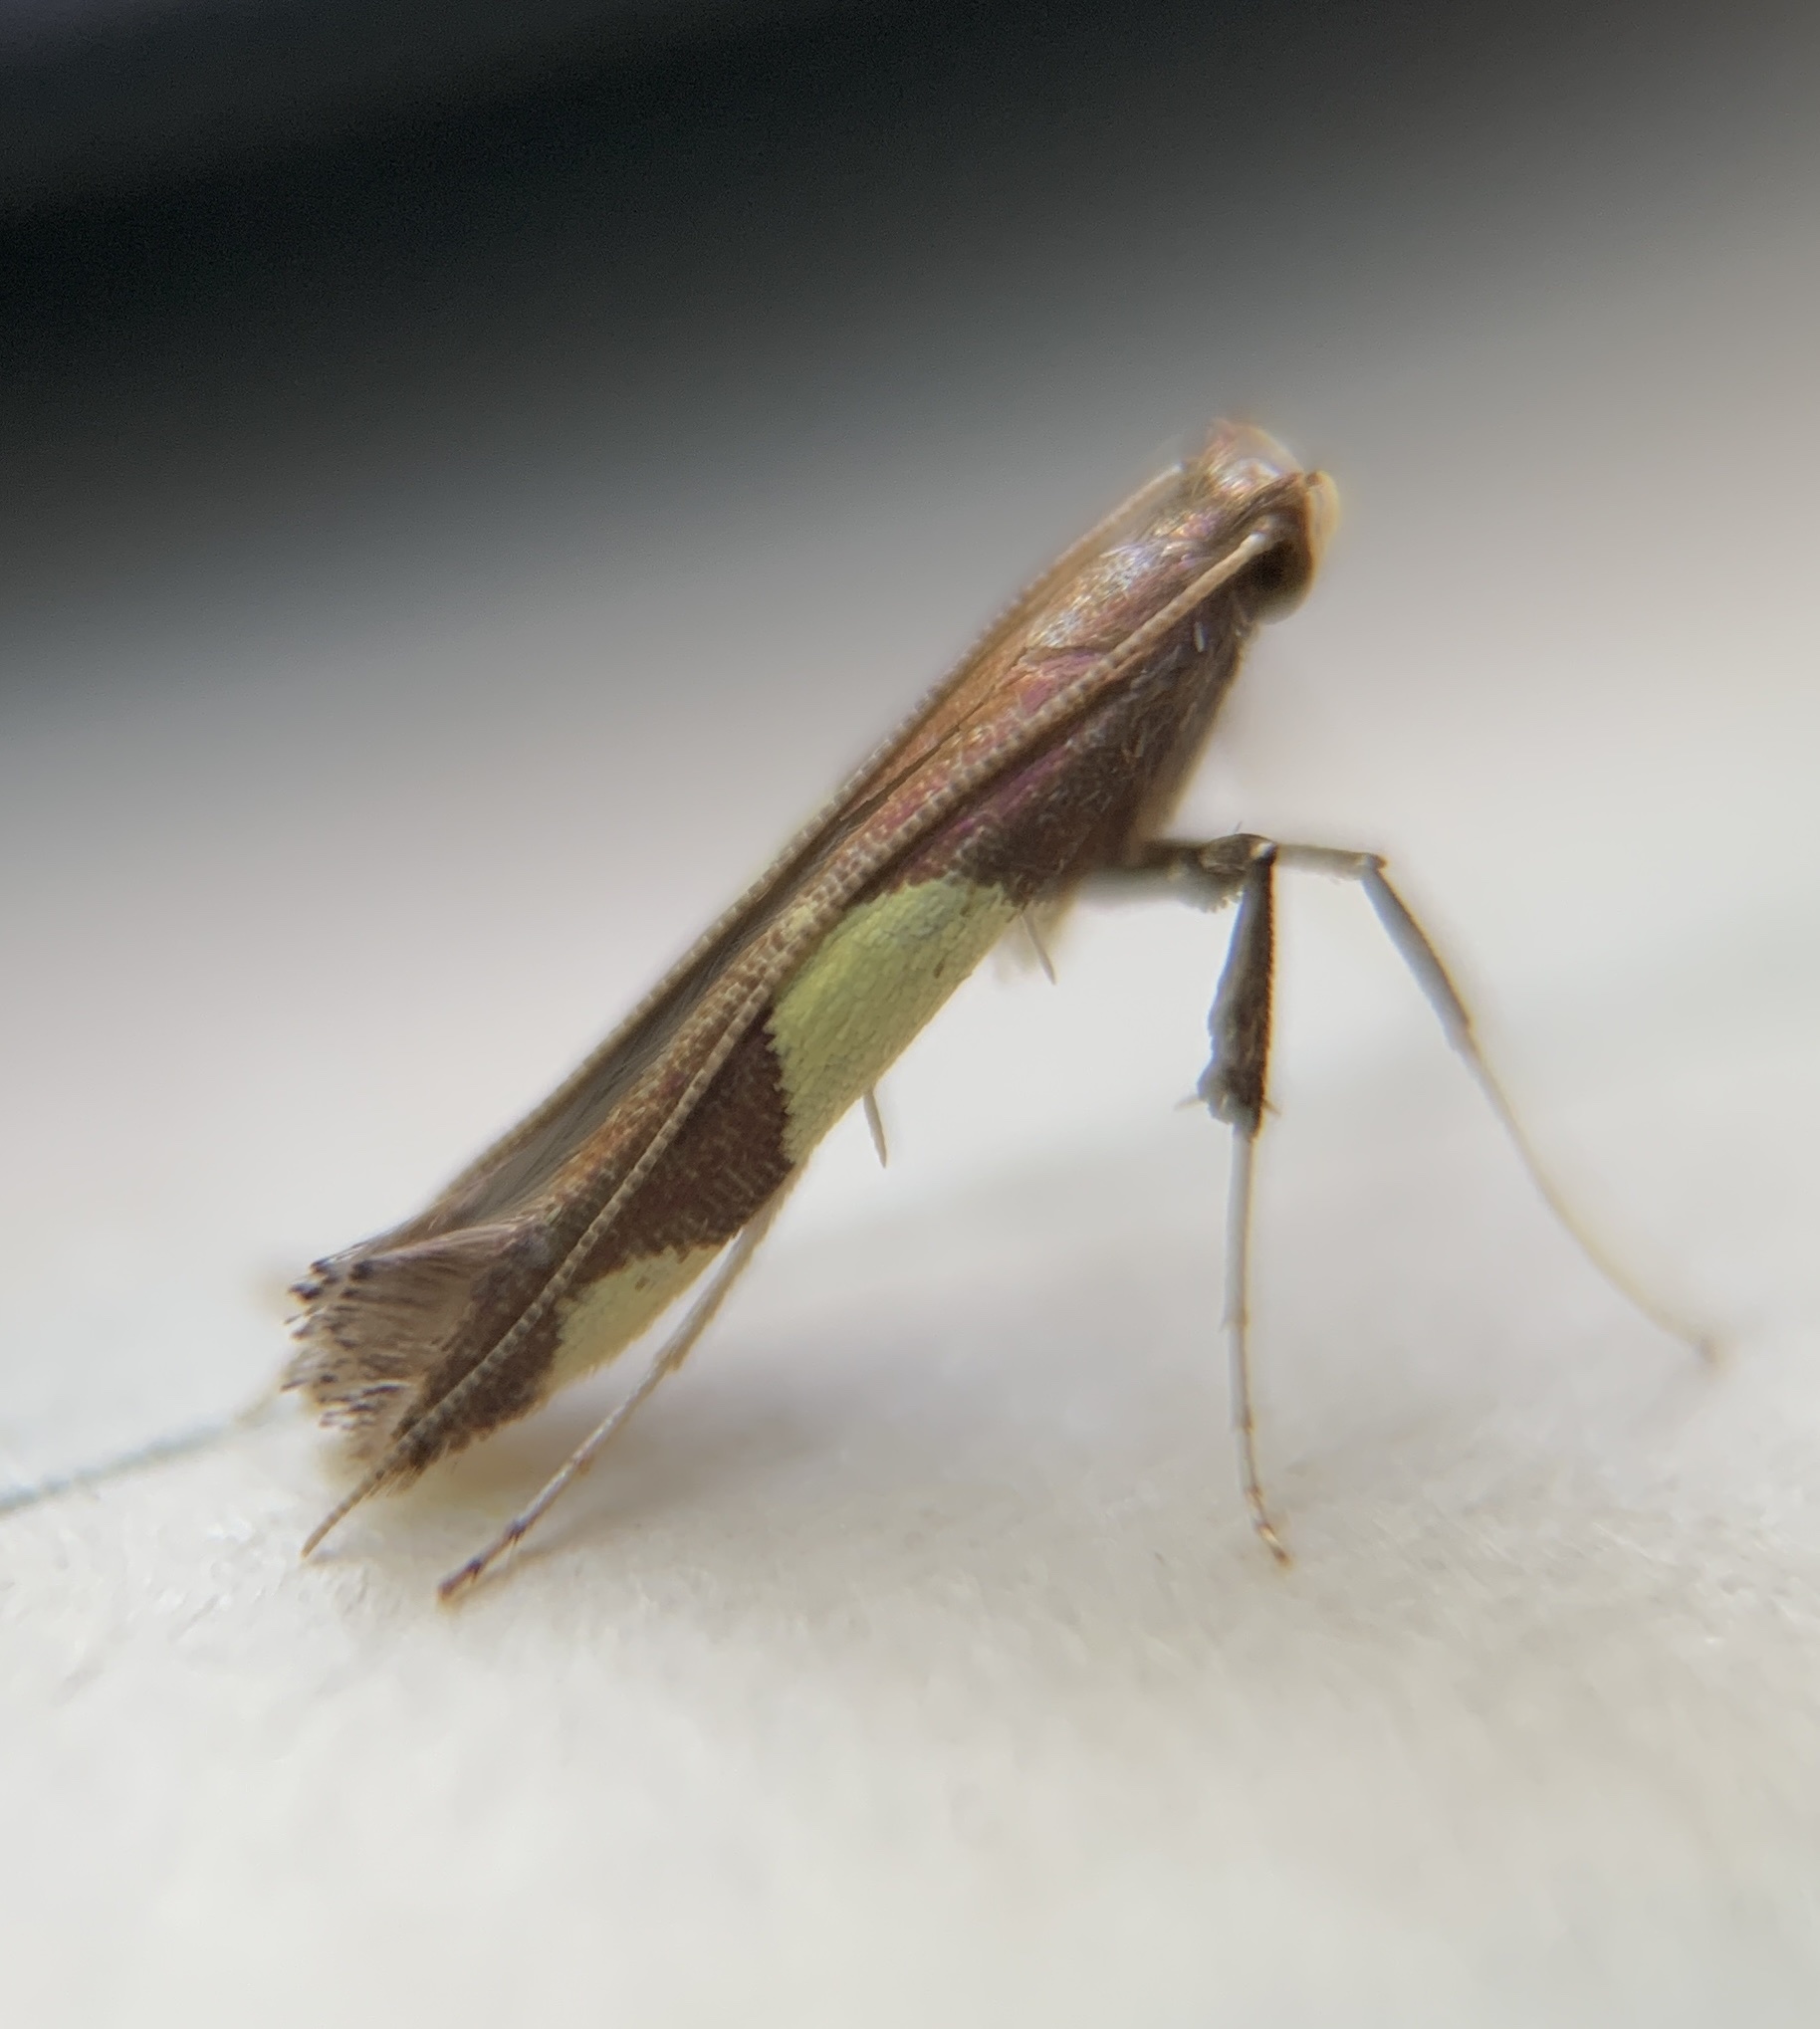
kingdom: Animalia
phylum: Arthropoda
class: Insecta
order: Lepidoptera
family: Gracillariidae
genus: Caloptilia
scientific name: Caloptilia bimaculatella
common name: Maple caloptilia moth
